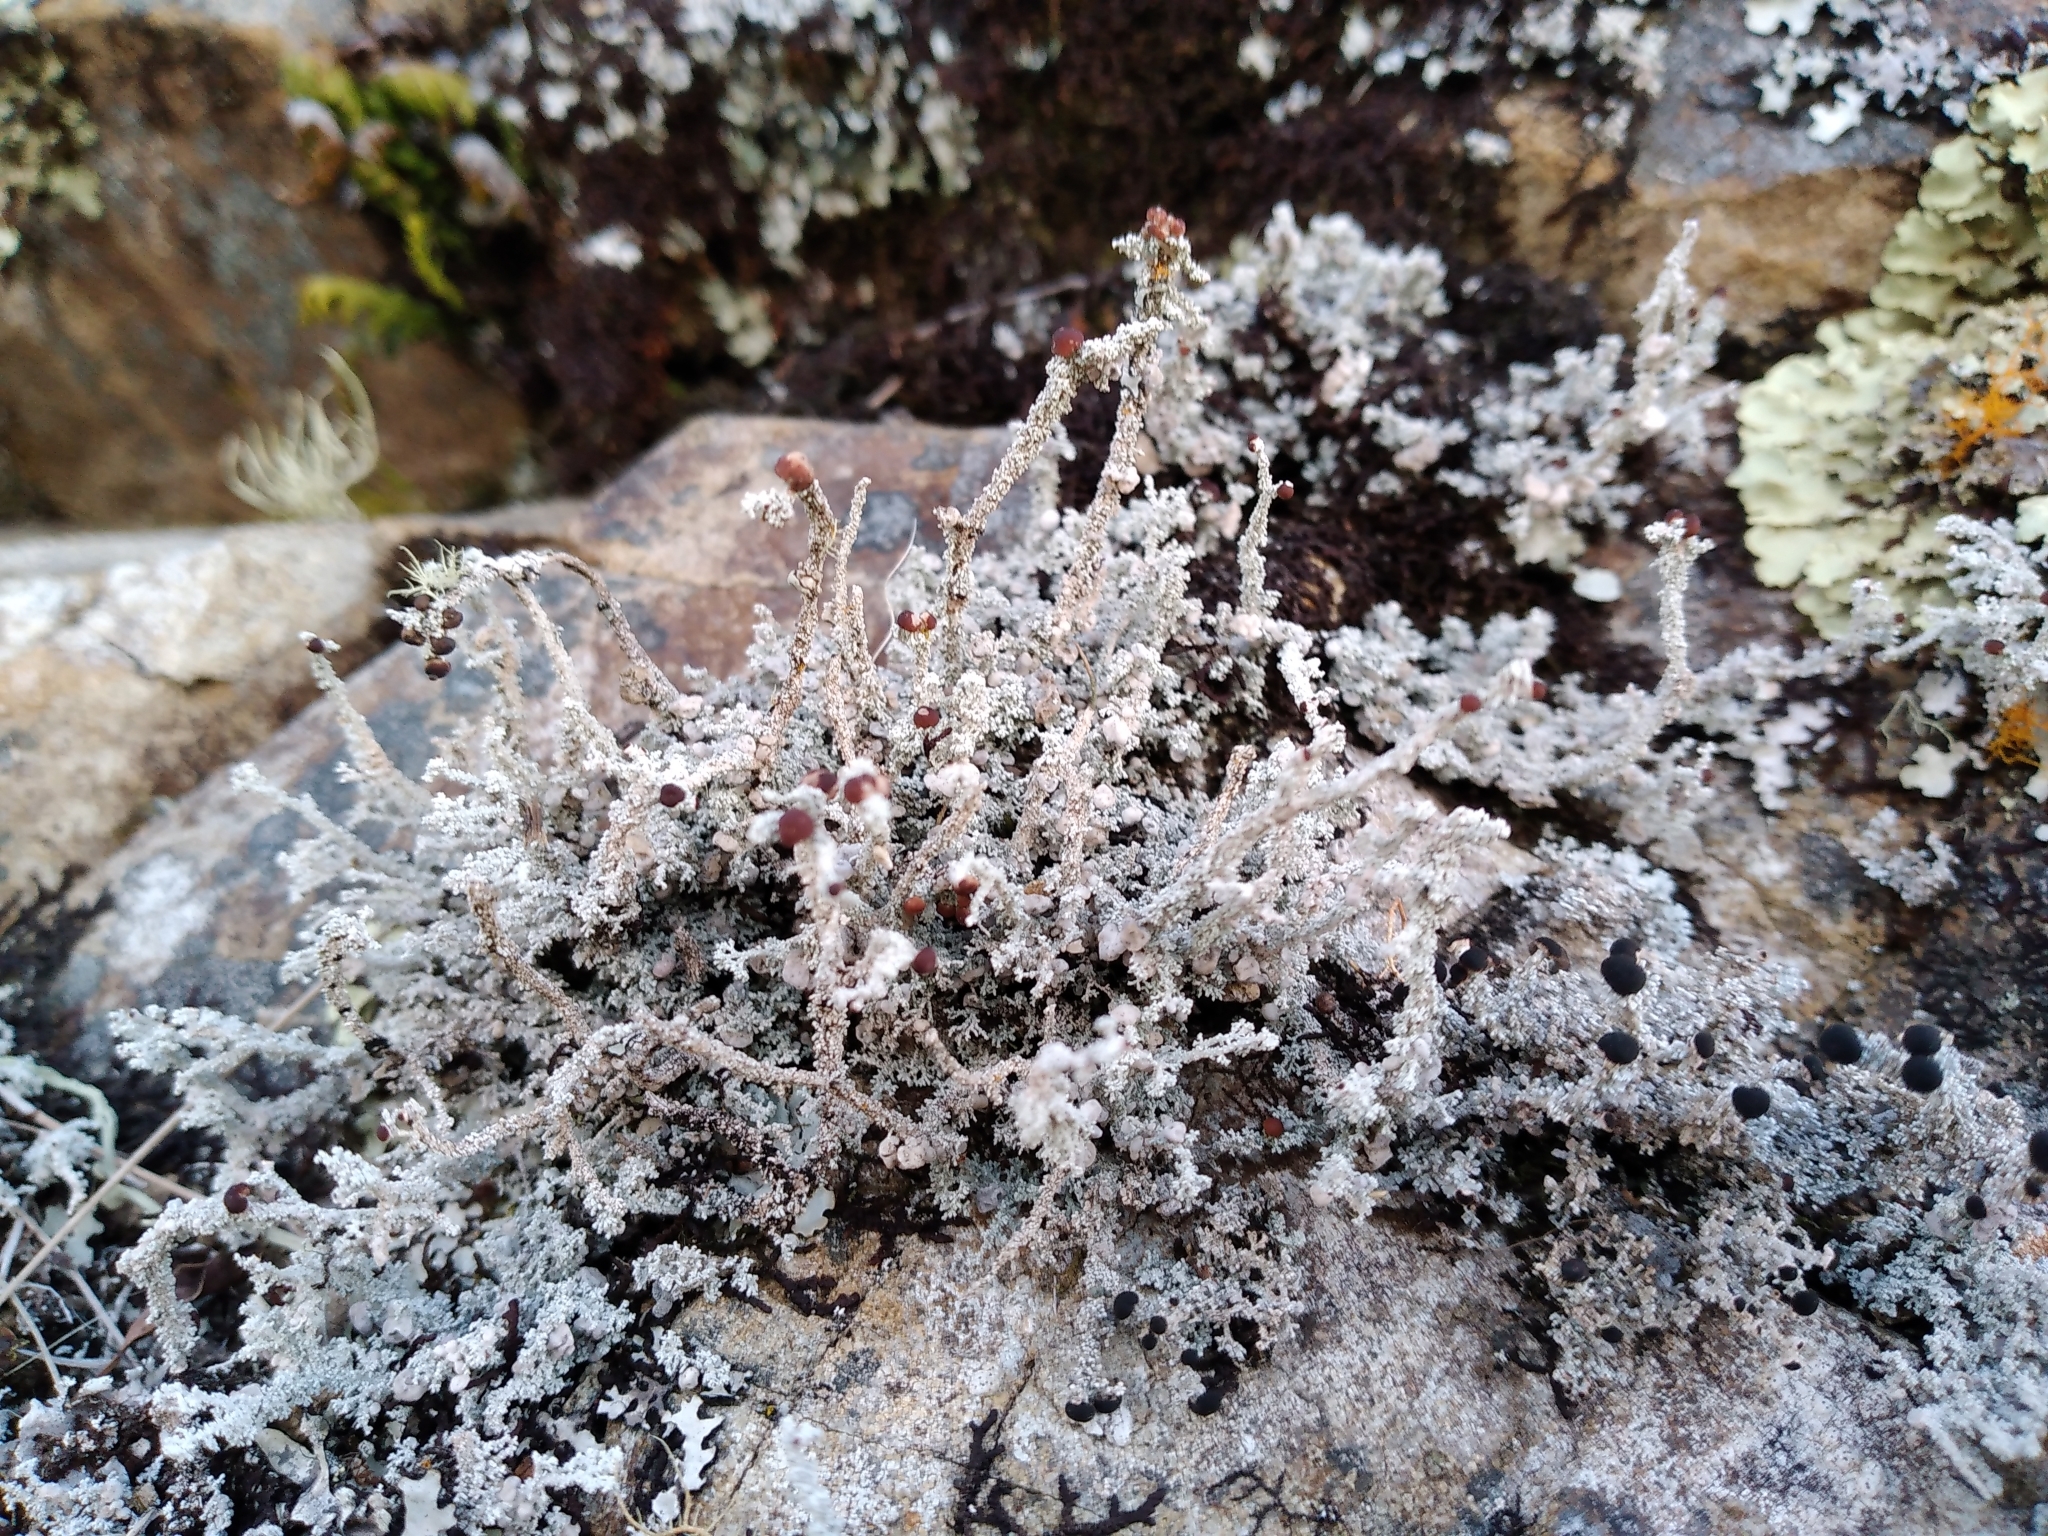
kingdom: Fungi
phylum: Ascomycota
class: Lecanoromycetes
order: Lecanorales
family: Stereocaulaceae
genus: Stereocaulon
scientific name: Stereocaulon ramulosum
